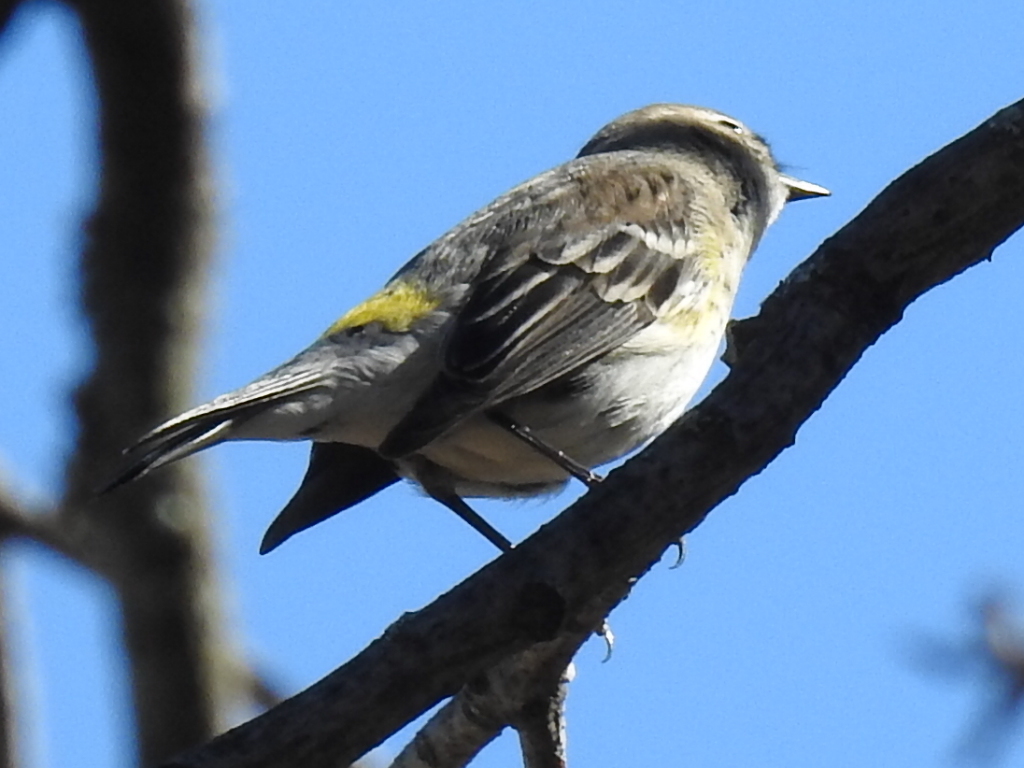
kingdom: Animalia
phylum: Chordata
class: Aves
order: Passeriformes
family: Parulidae
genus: Setophaga
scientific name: Setophaga coronata
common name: Myrtle warbler
